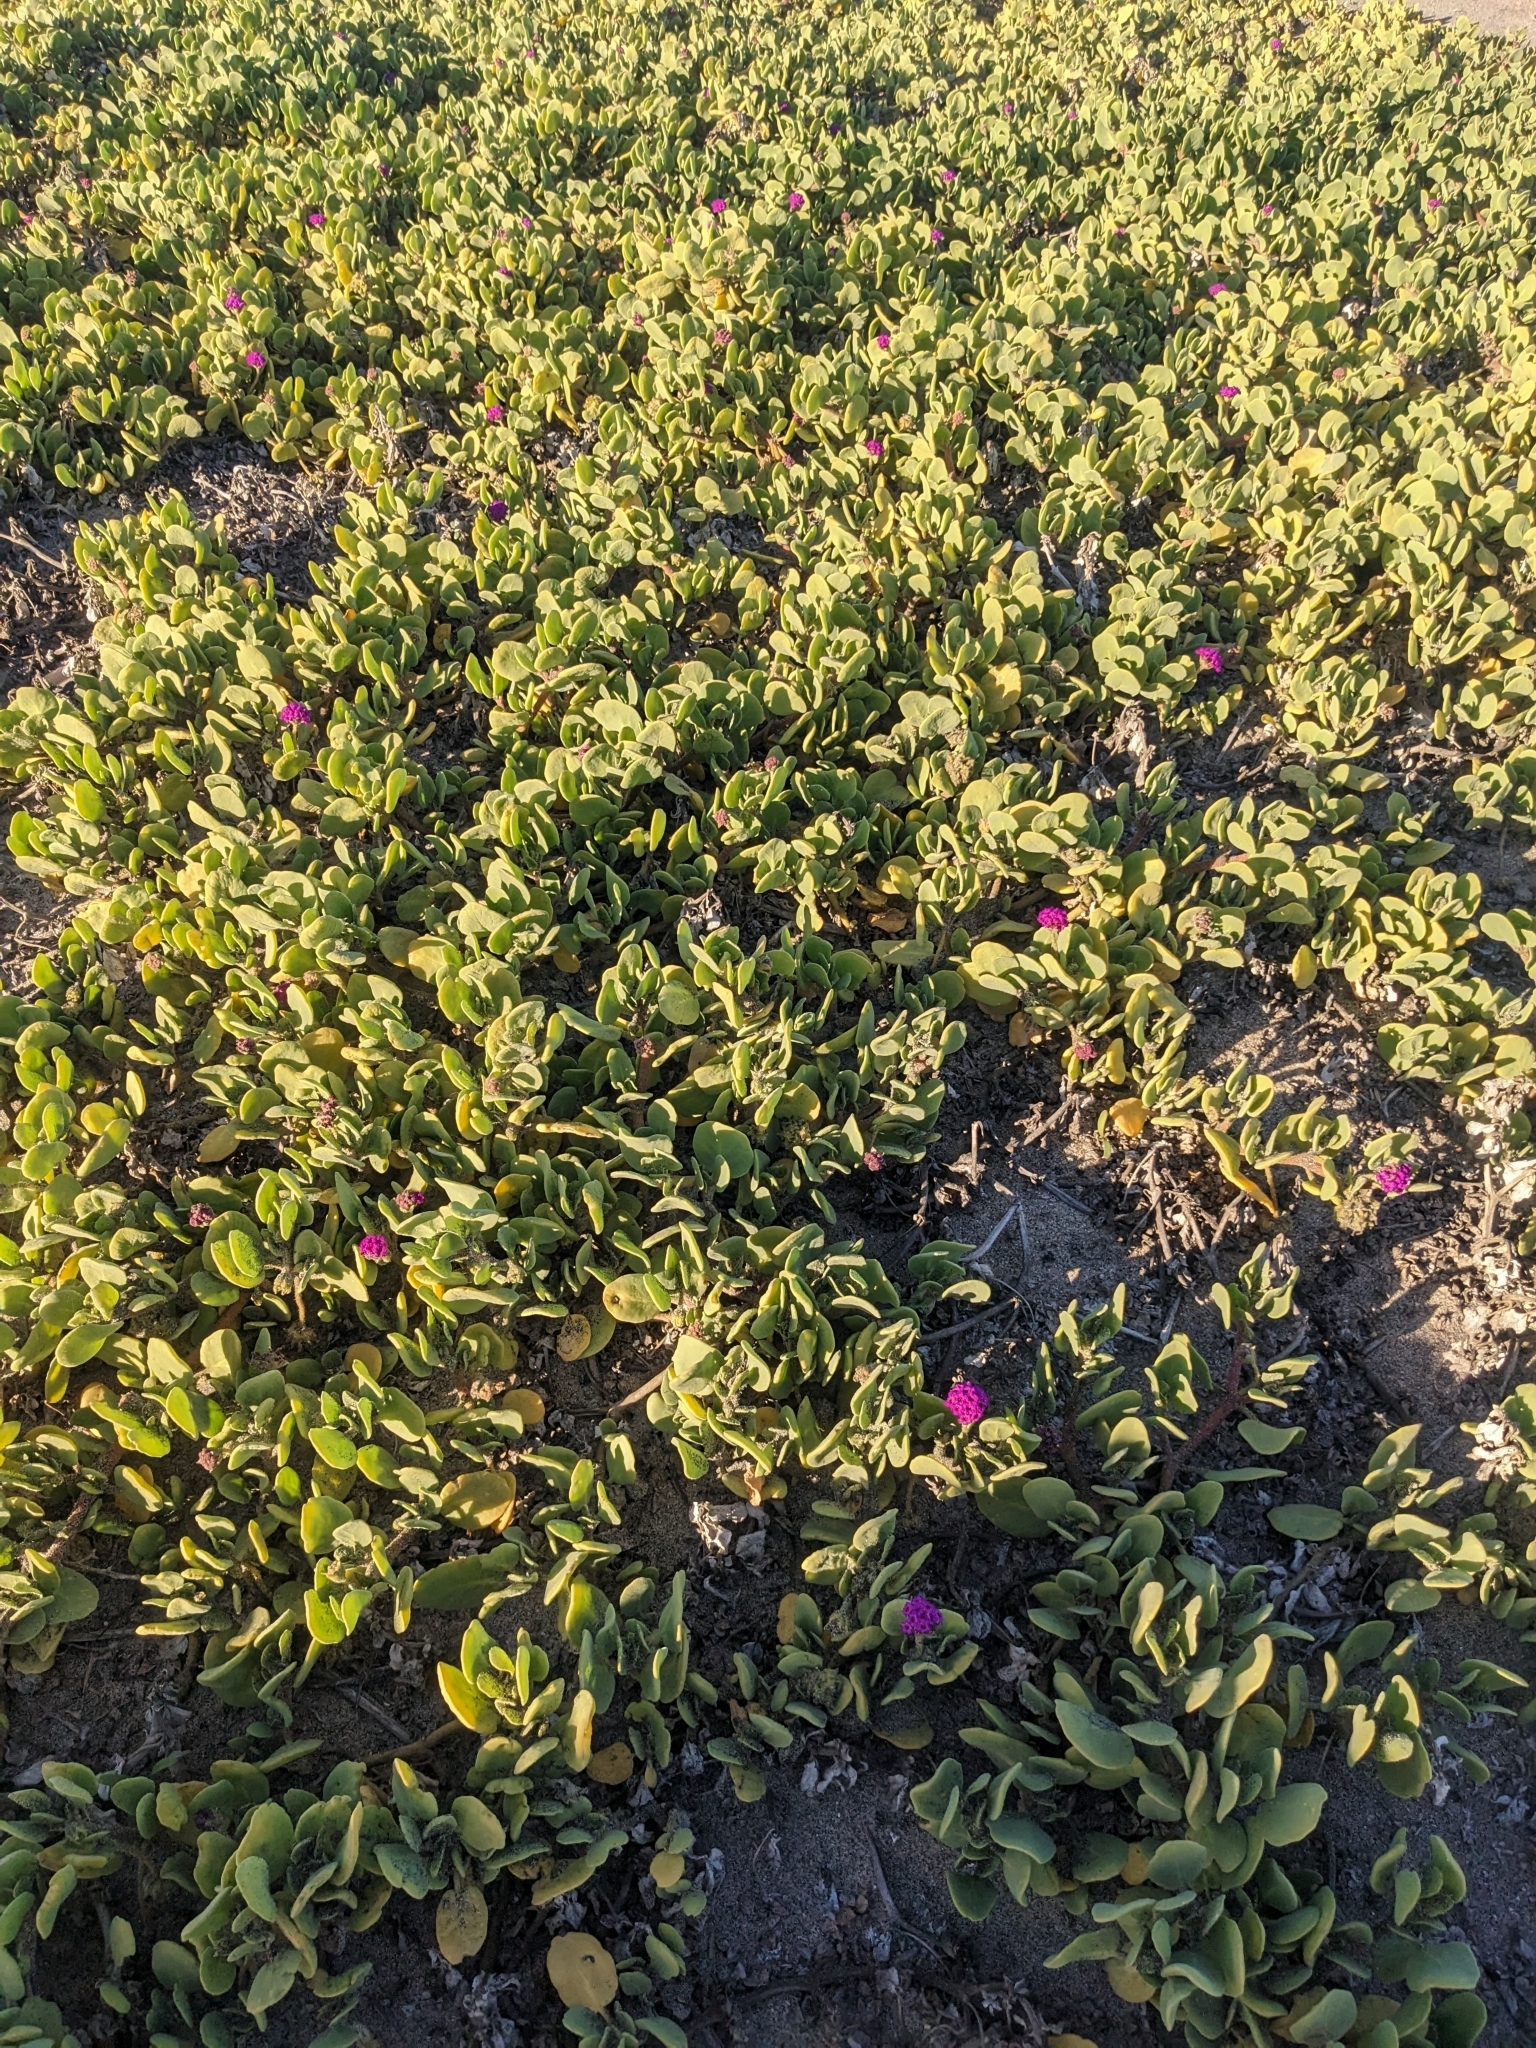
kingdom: Plantae
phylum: Tracheophyta
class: Magnoliopsida
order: Caryophyllales
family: Nyctaginaceae
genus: Abronia
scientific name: Abronia maritima
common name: Red sand-verbena
